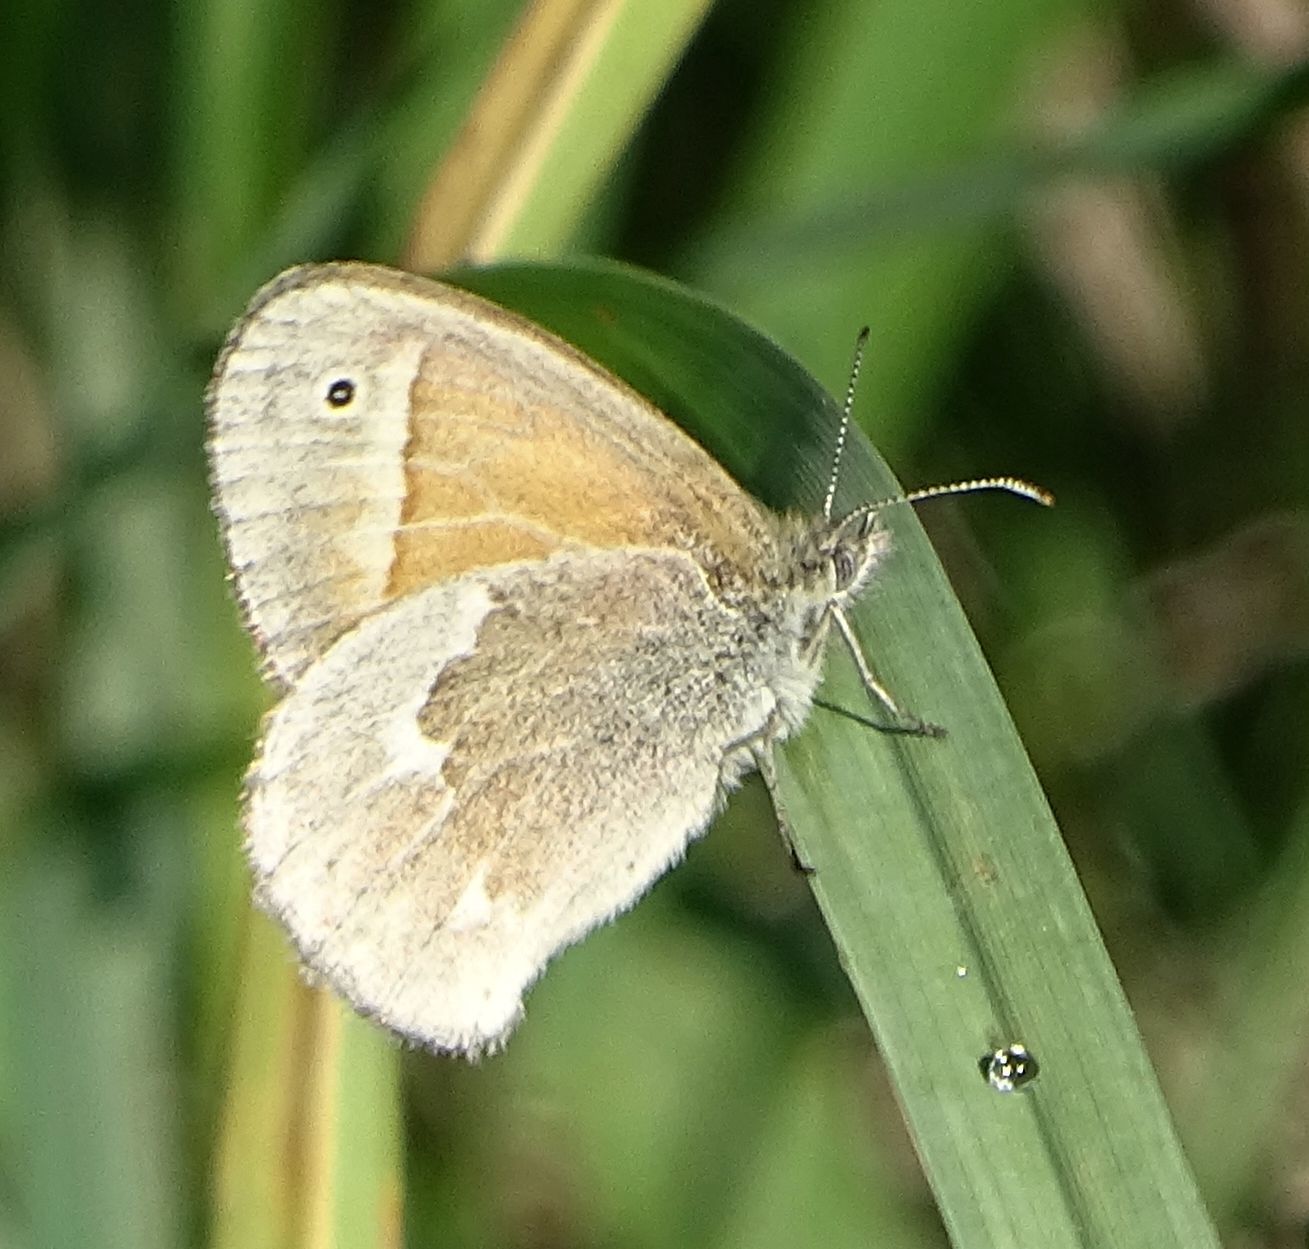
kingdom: Animalia
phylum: Arthropoda
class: Insecta
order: Lepidoptera
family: Nymphalidae
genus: Coenonympha
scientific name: Coenonympha california
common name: Common ringlet
